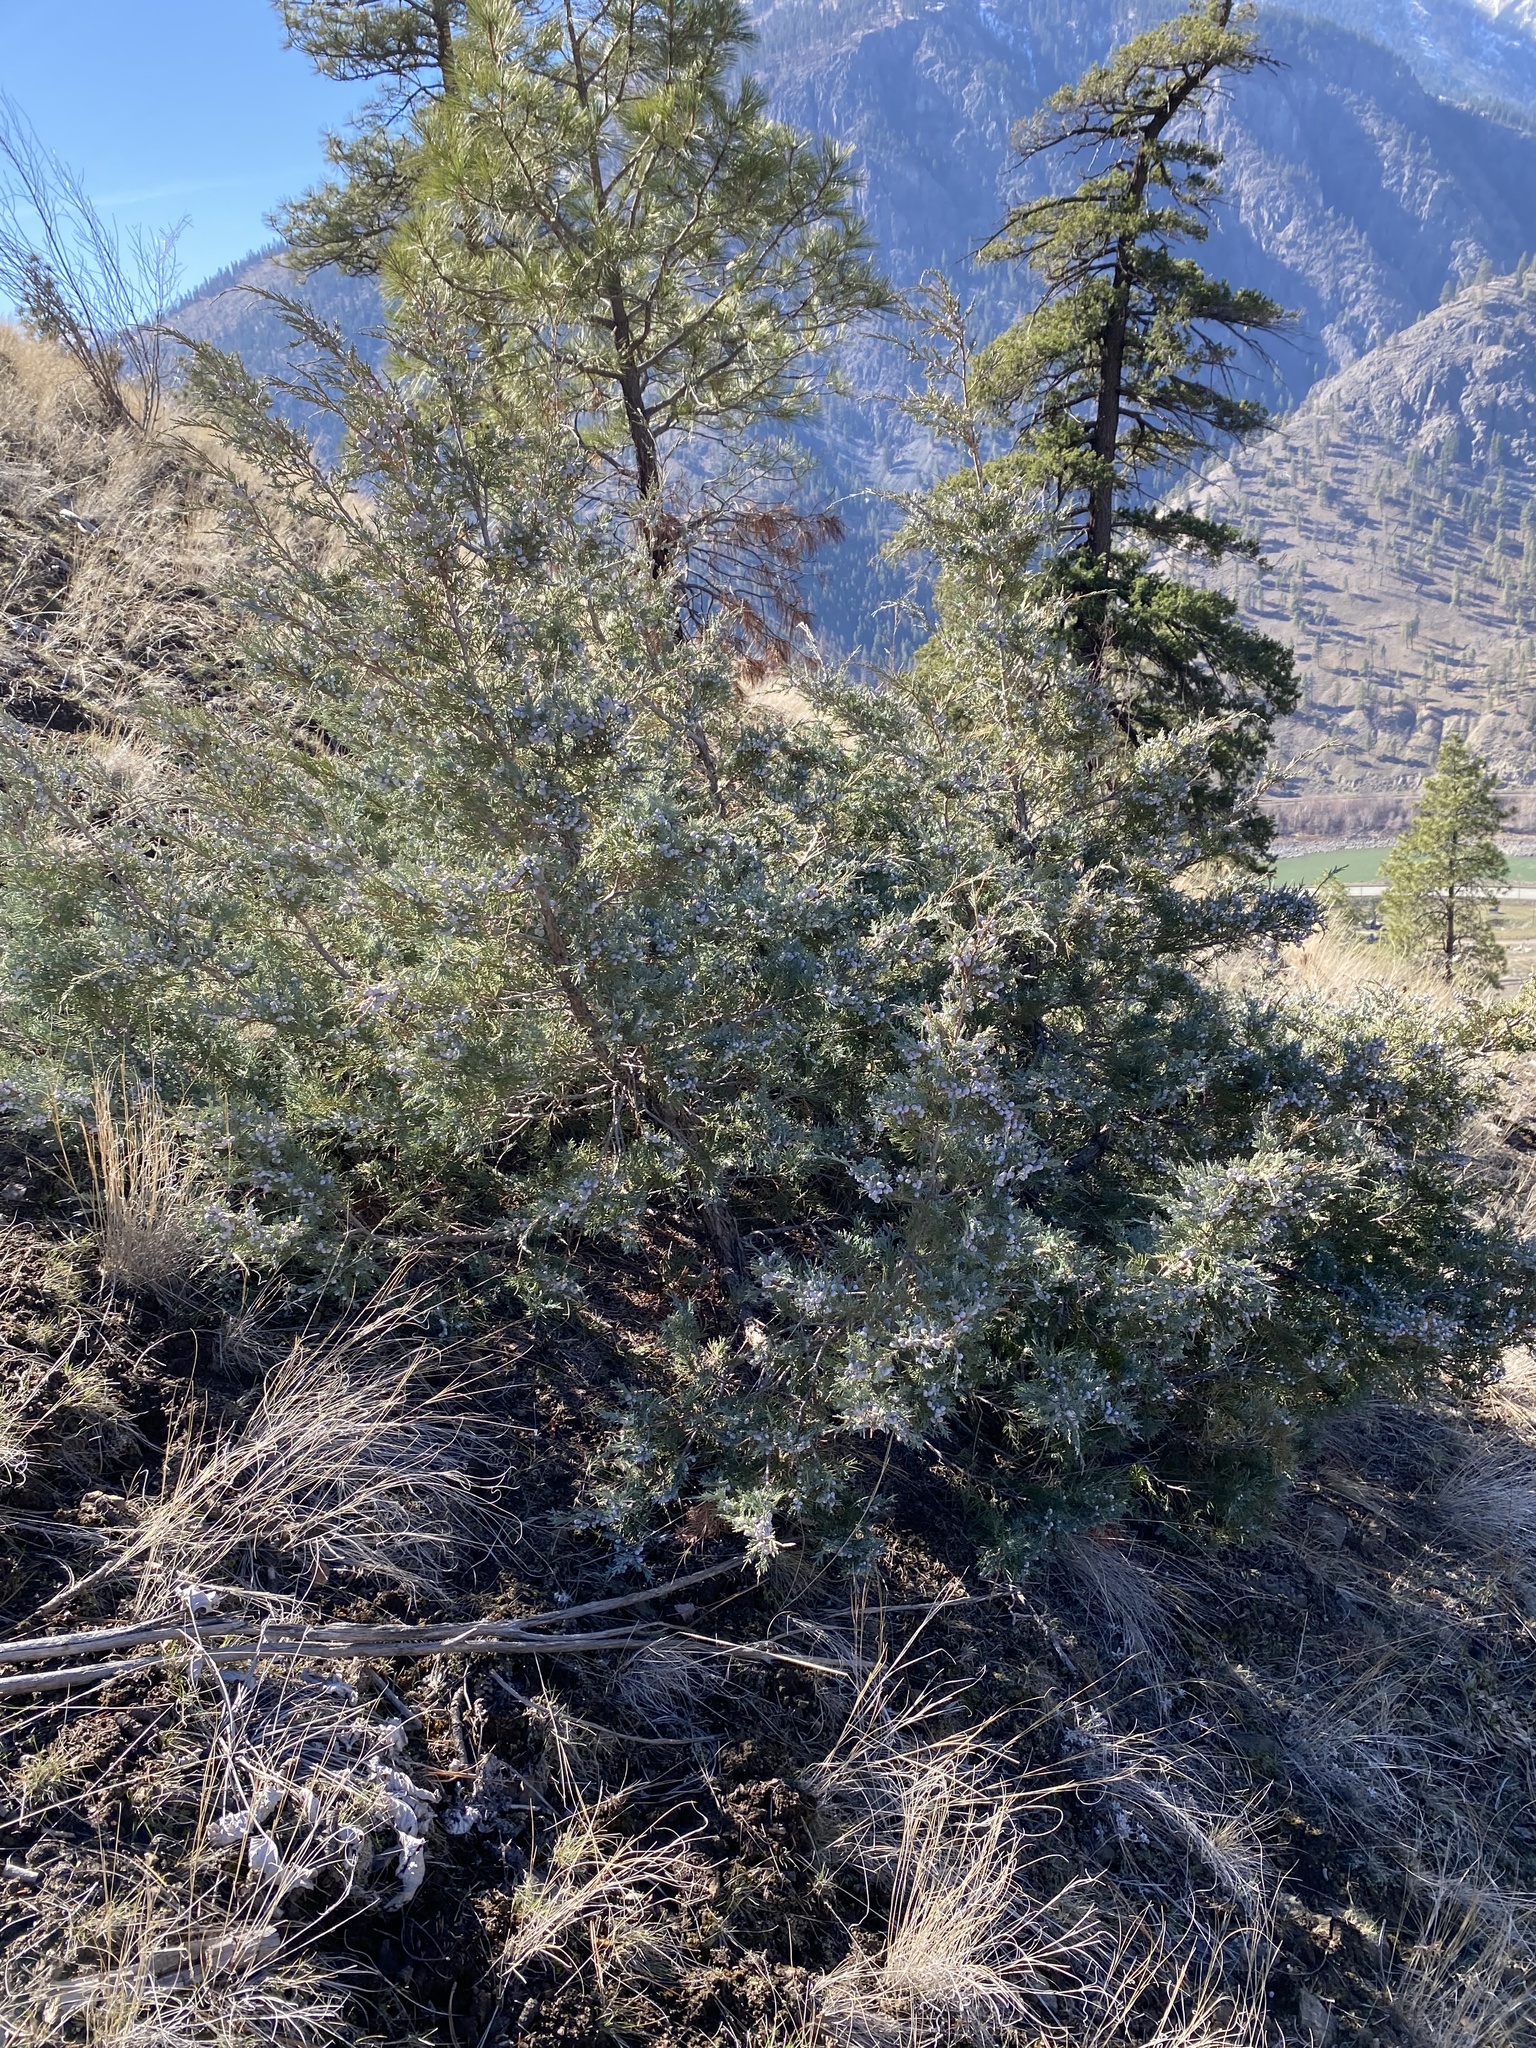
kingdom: Plantae
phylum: Tracheophyta
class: Pinopsida
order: Pinales
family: Cupressaceae
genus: Juniperus
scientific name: Juniperus scopulorum
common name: Rocky mountain juniper
